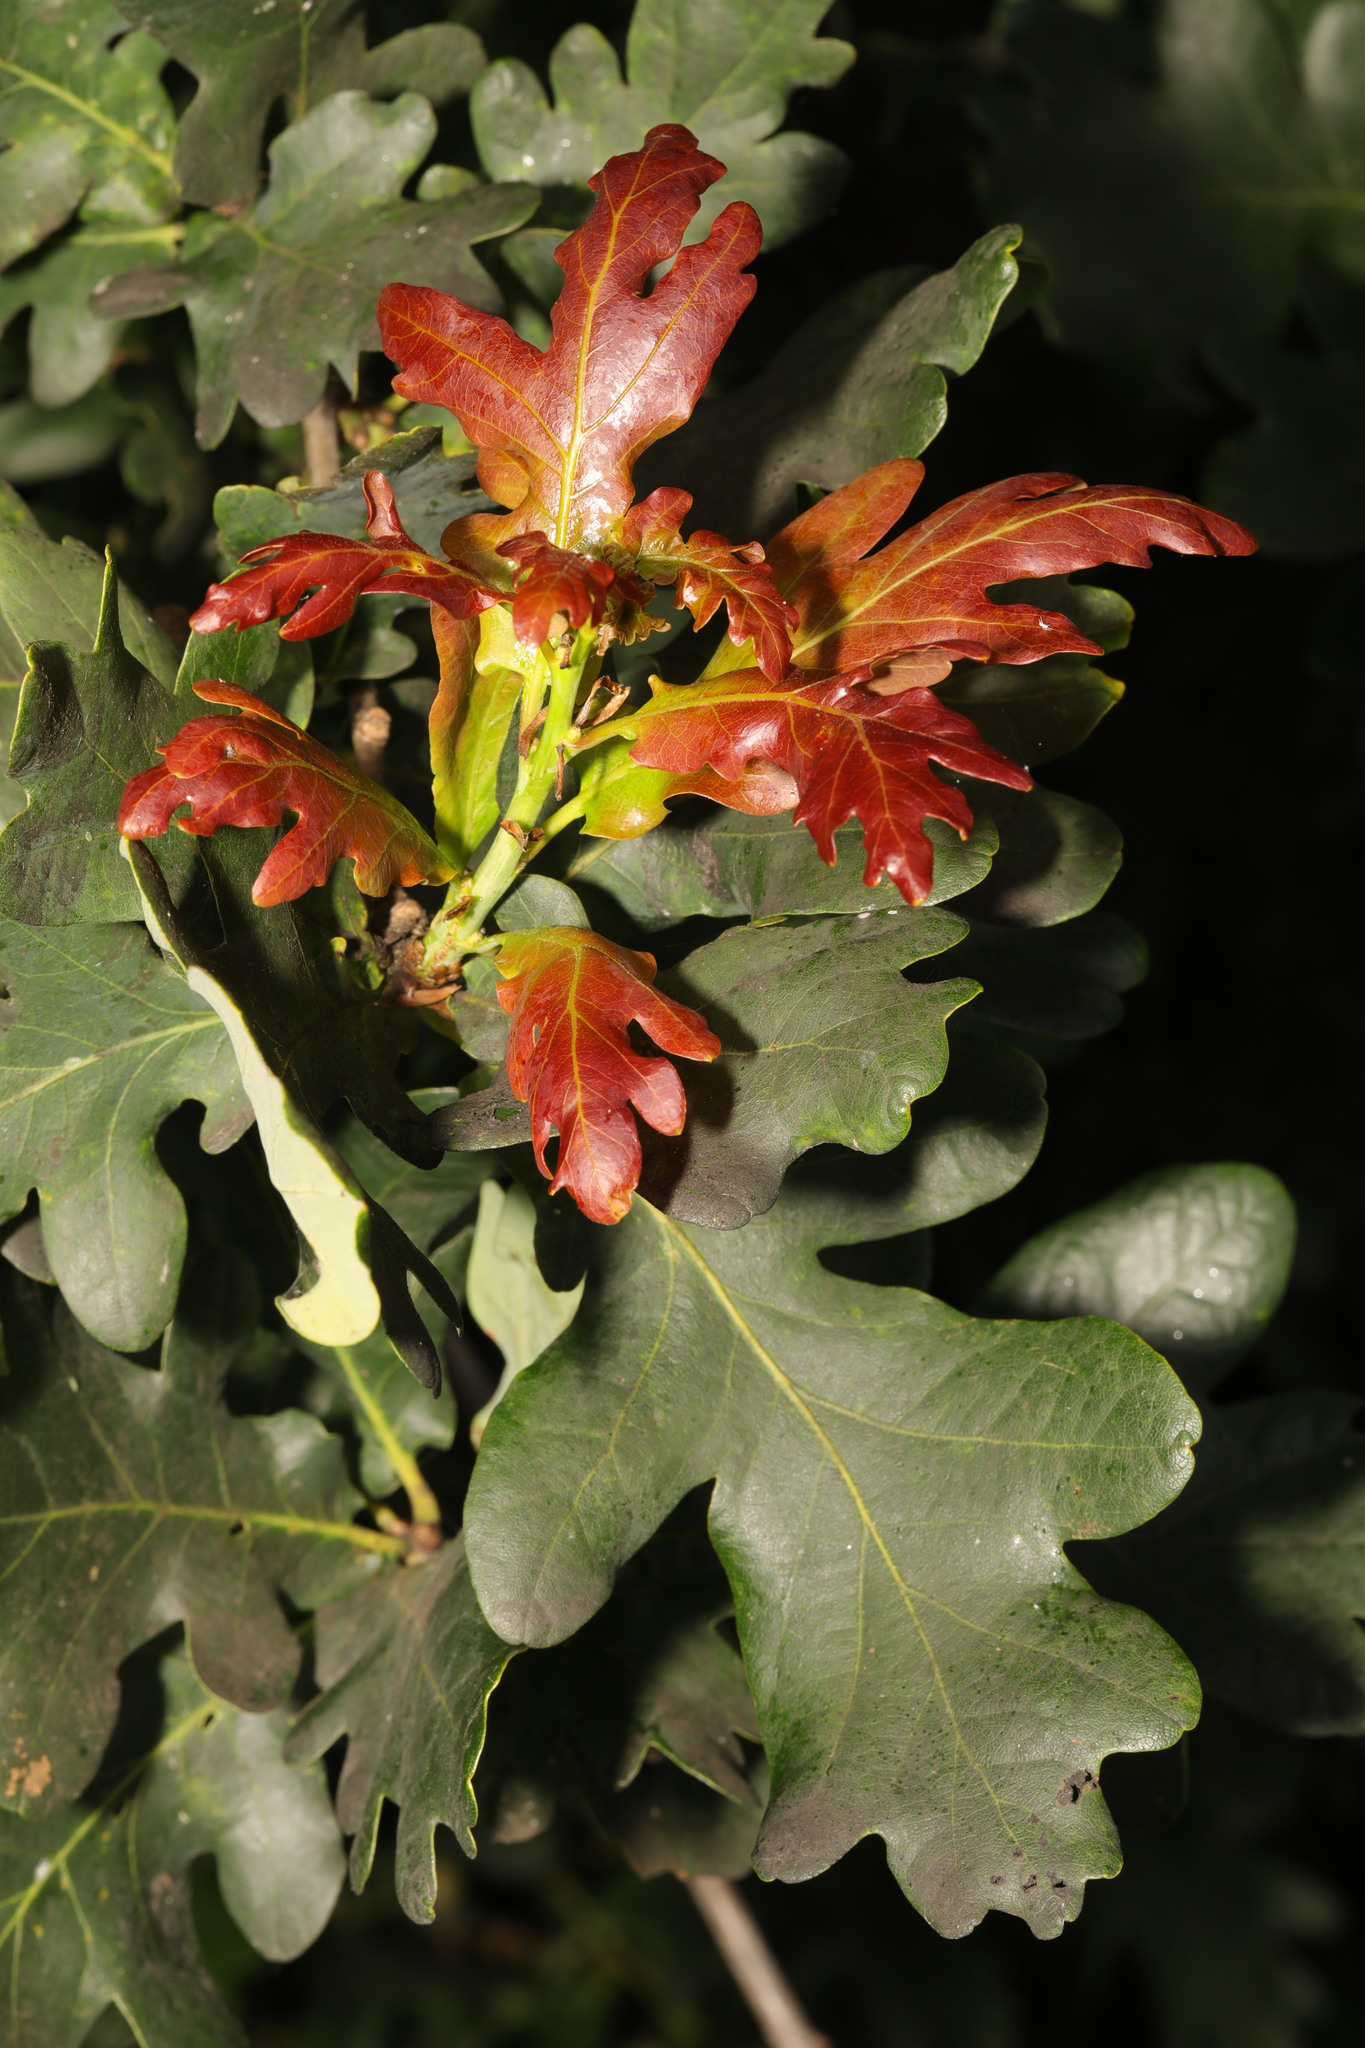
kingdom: Plantae
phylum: Tracheophyta
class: Magnoliopsida
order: Fagales
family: Fagaceae
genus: Quercus
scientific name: Quercus robur
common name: Pedunculate oak
